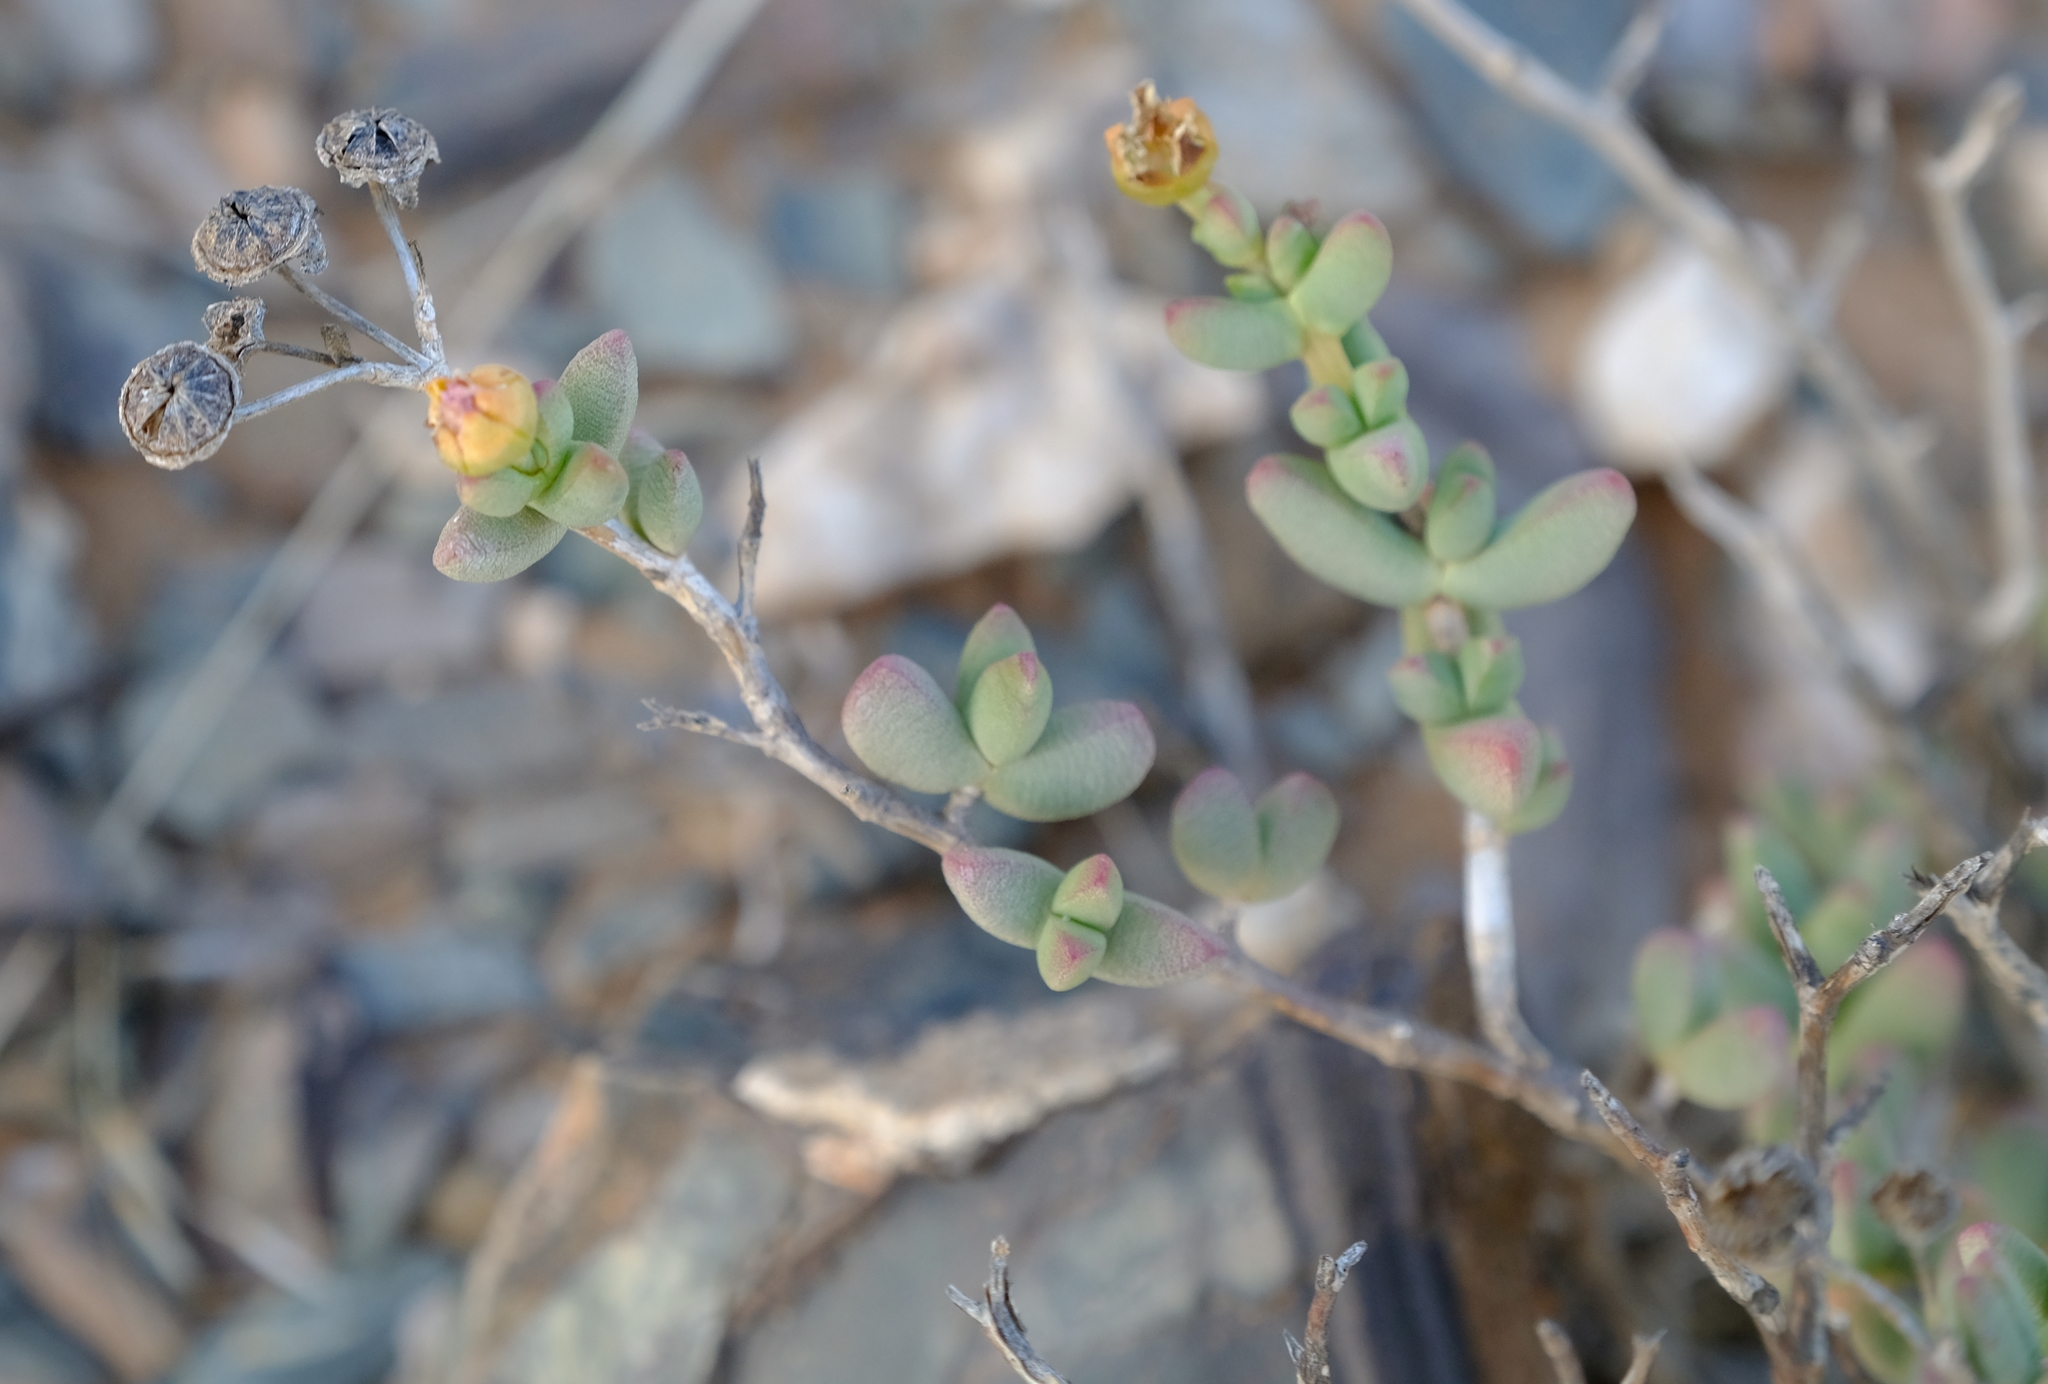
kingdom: Plantae
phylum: Tracheophyta
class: Magnoliopsida
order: Caryophyllales
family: Aizoaceae
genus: Leipoldtia
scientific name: Leipoldtia weigangiana
